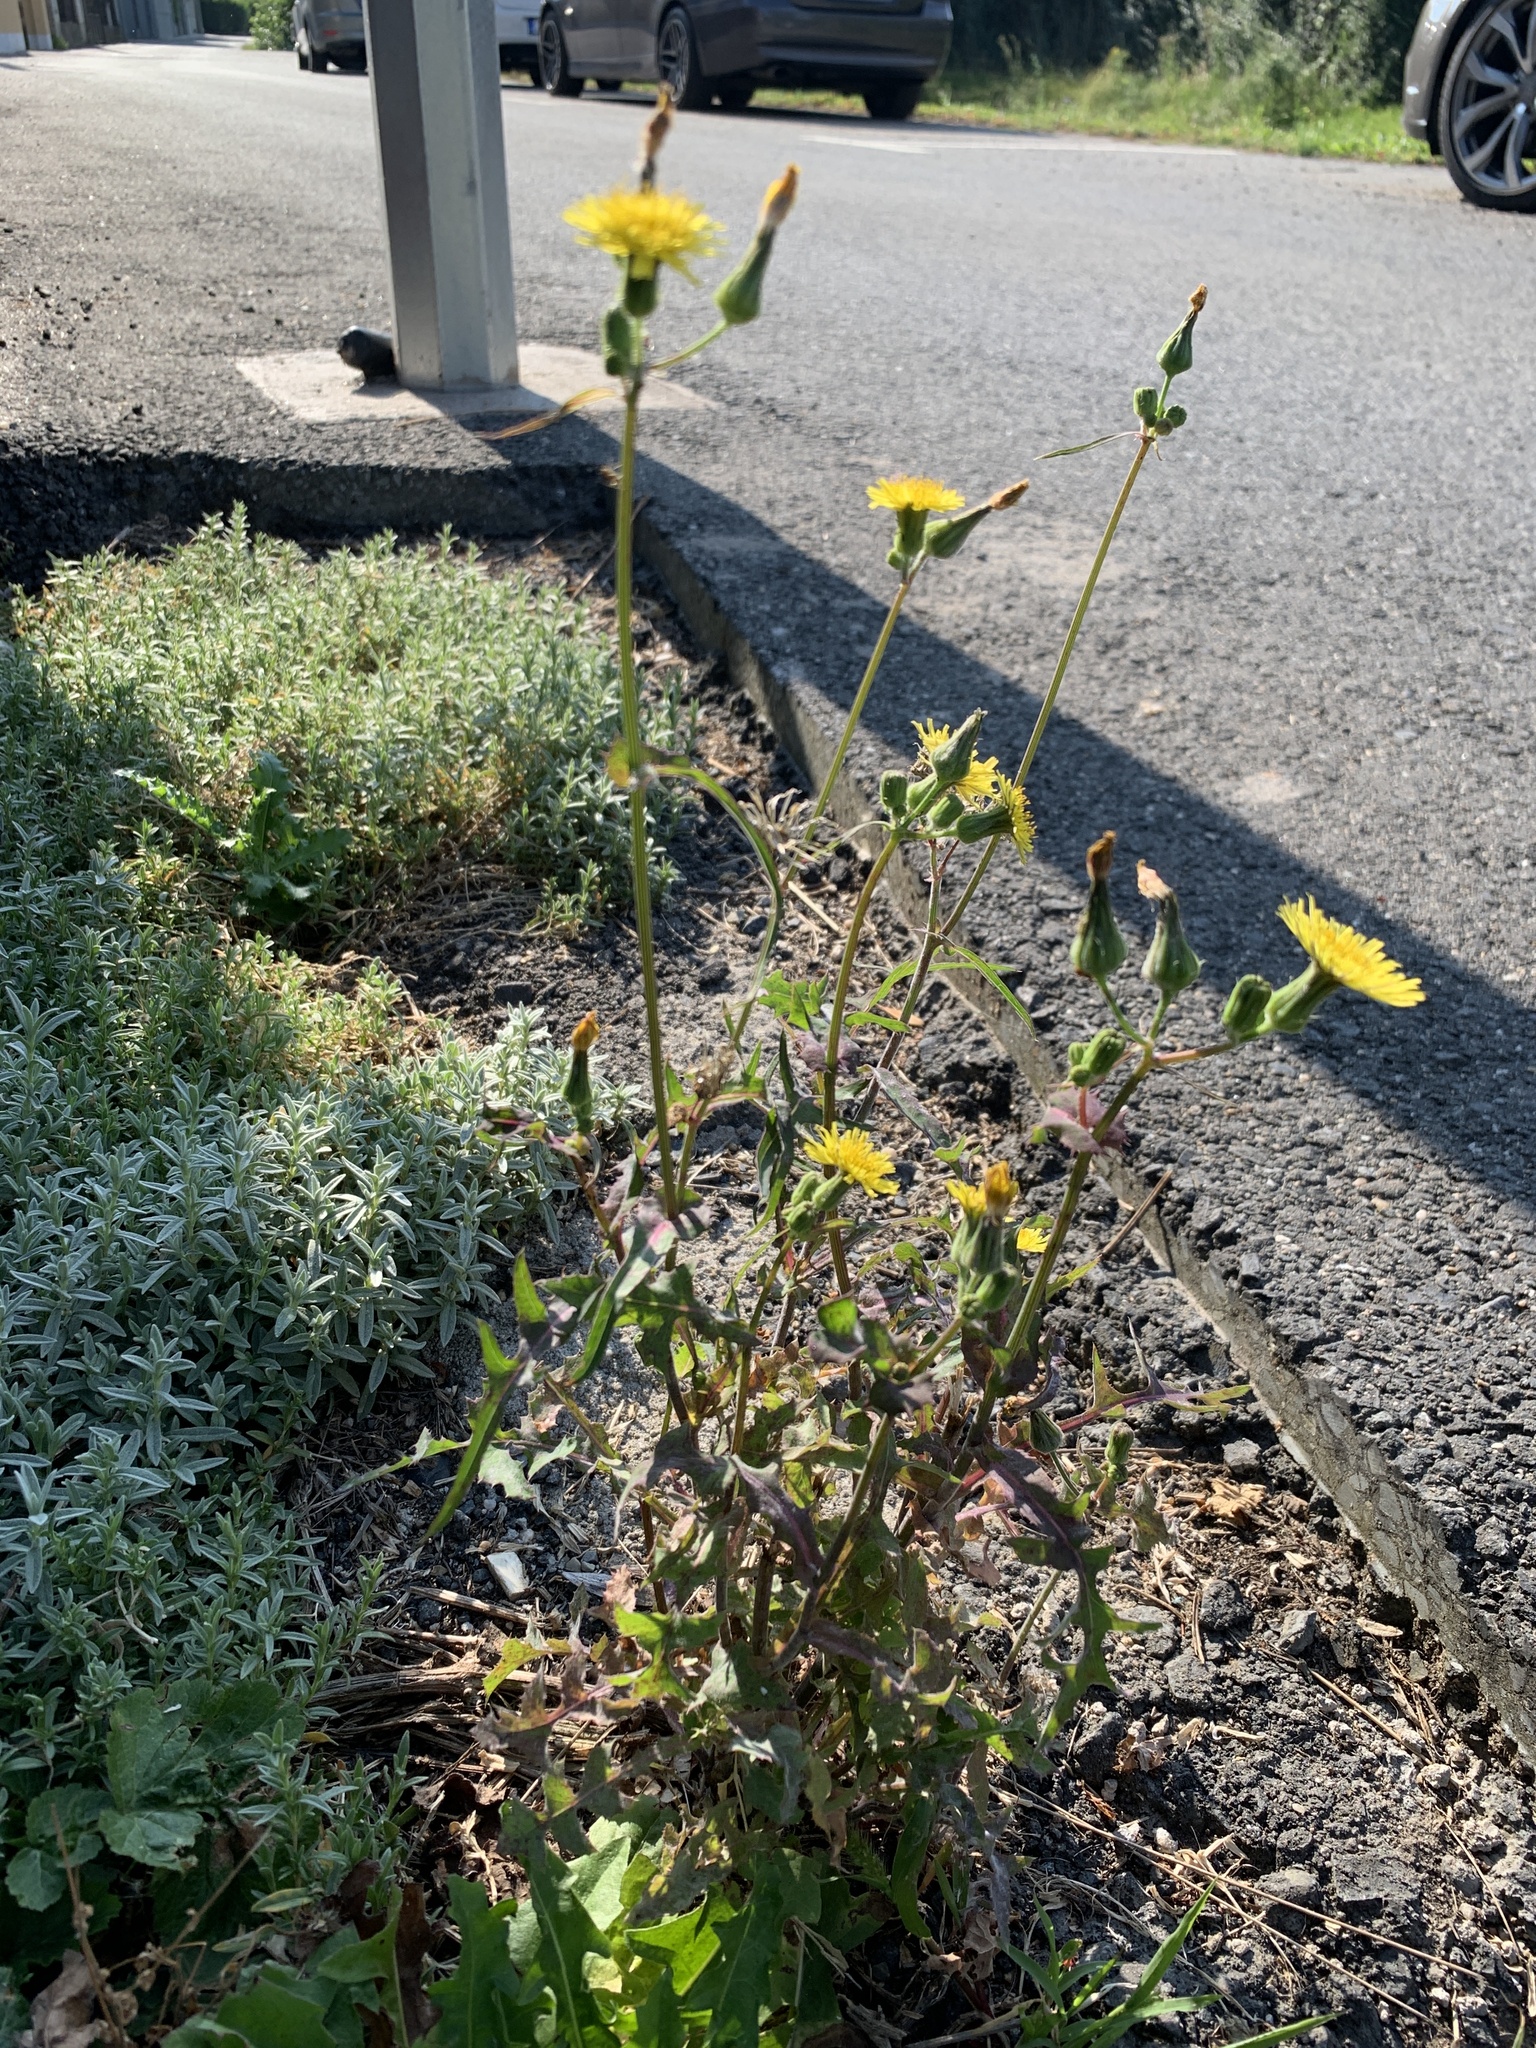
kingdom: Plantae
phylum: Tracheophyta
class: Magnoliopsida
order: Asterales
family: Asteraceae
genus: Sonchus
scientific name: Sonchus oleraceus
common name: Common sowthistle
